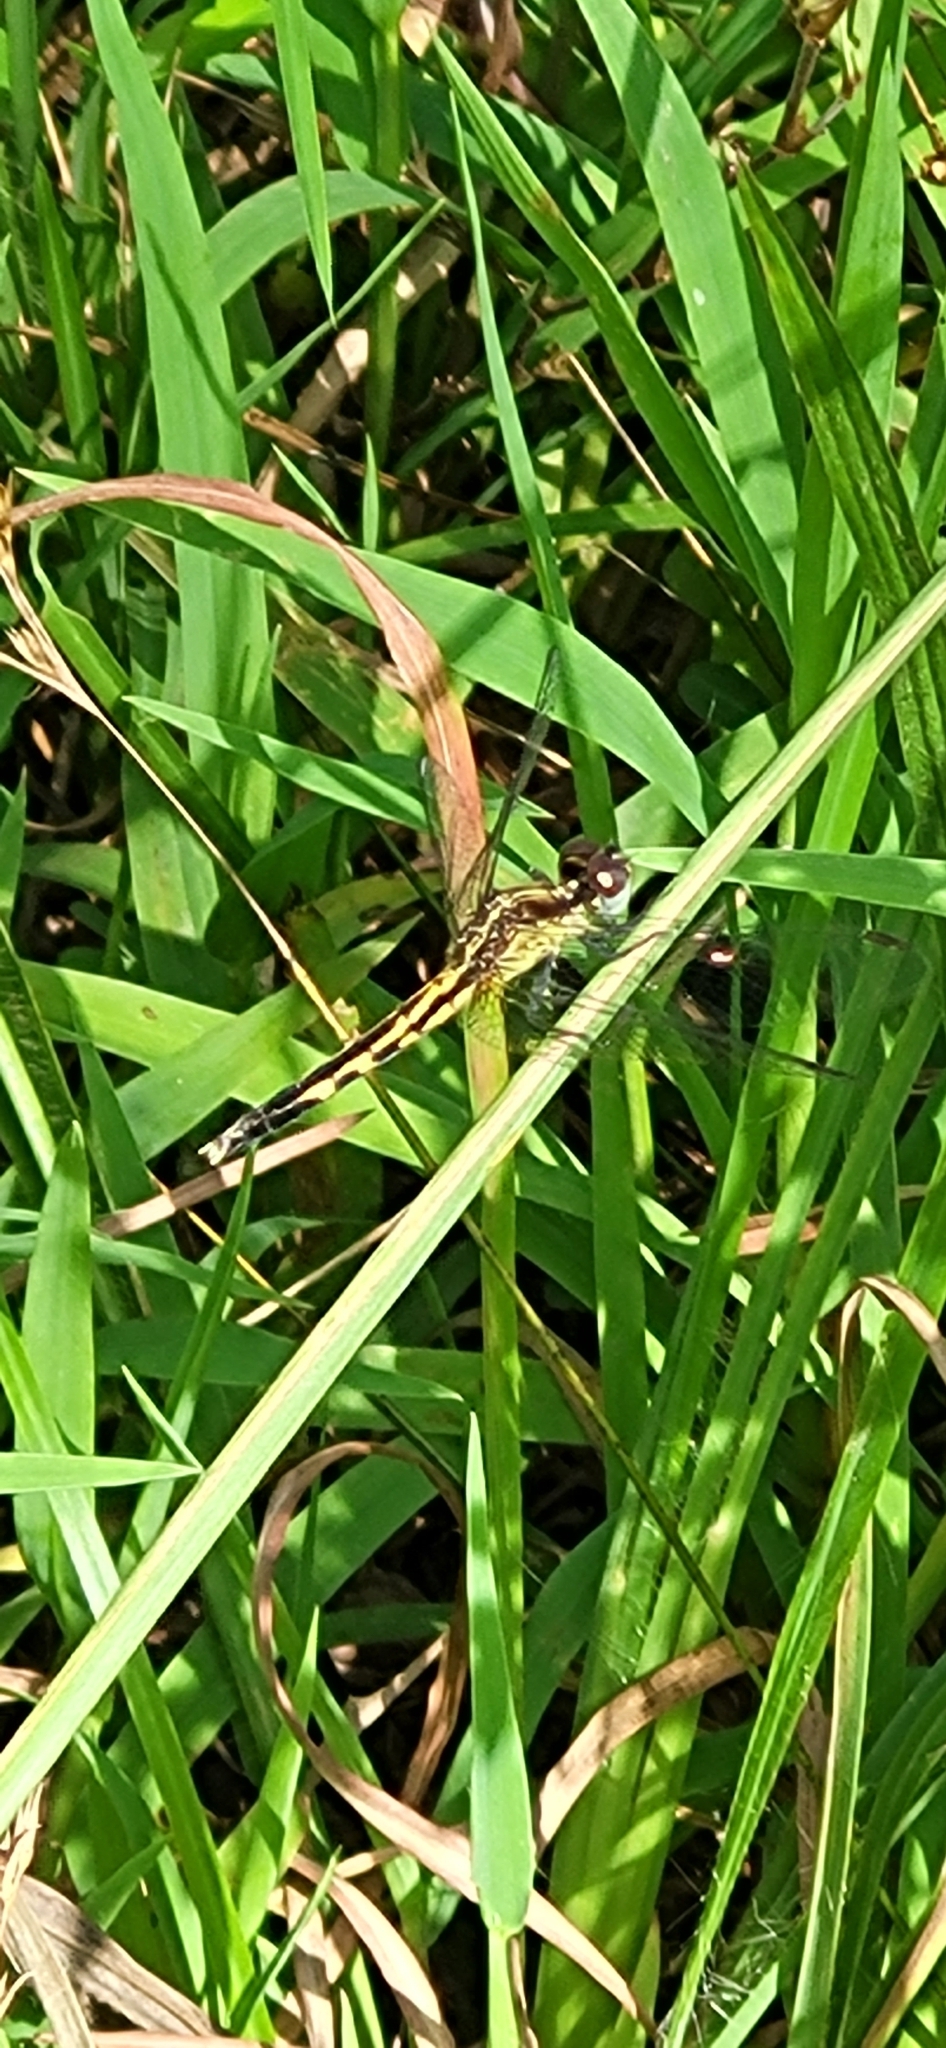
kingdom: Animalia
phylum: Arthropoda
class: Insecta
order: Odonata
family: Libellulidae
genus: Erythrodiplax
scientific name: Erythrodiplax minuscula
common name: Little blue dragonlet
